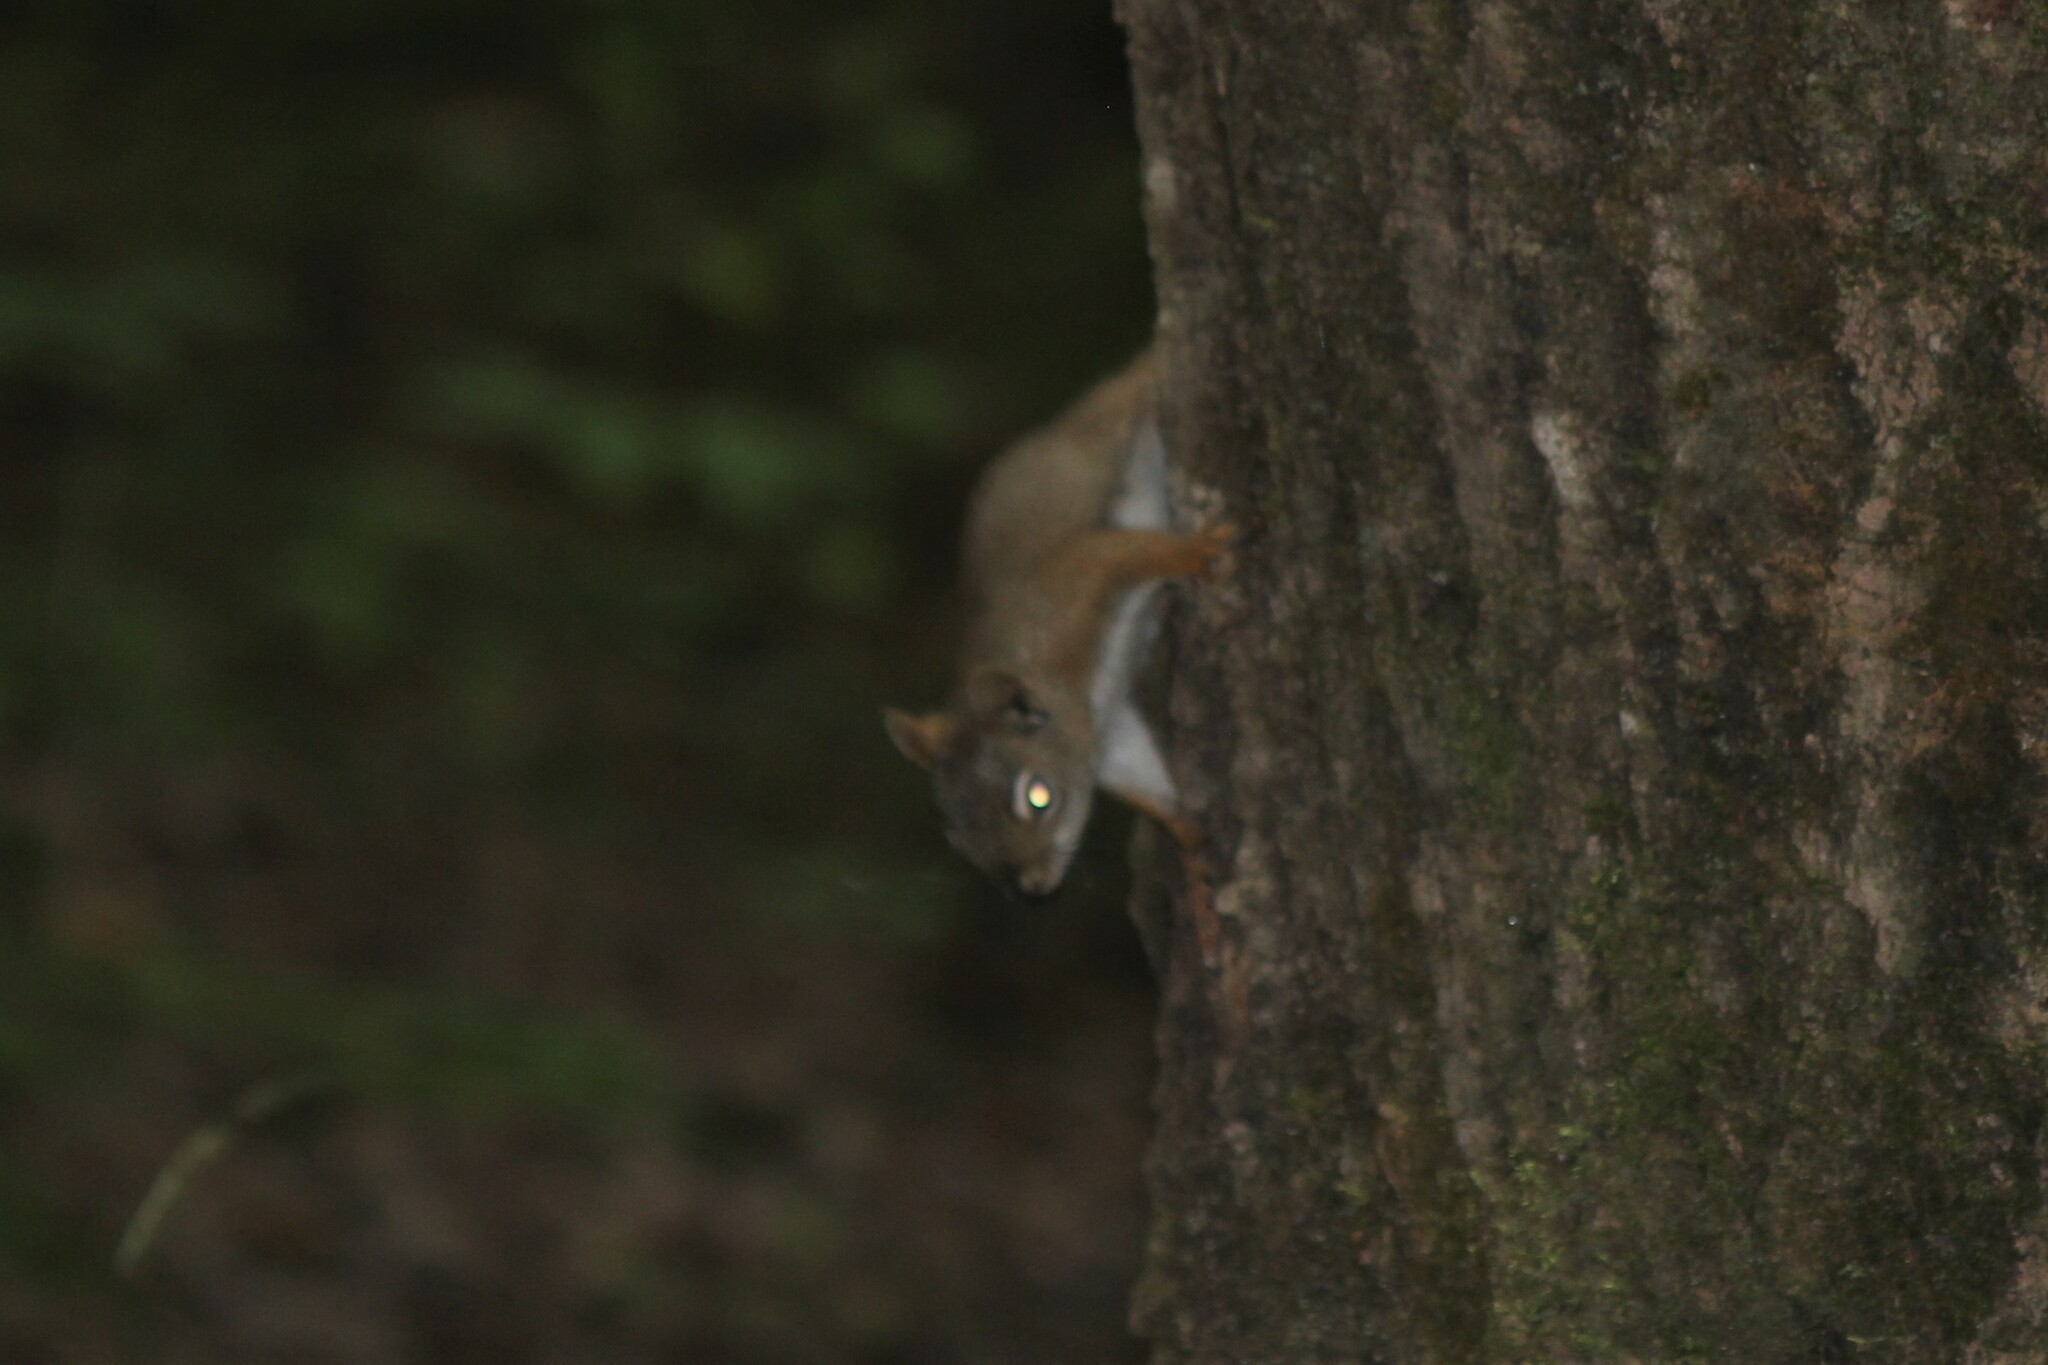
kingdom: Animalia
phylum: Chordata
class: Mammalia
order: Rodentia
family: Sciuridae
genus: Tamiasciurus
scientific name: Tamiasciurus hudsonicus
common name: Red squirrel
